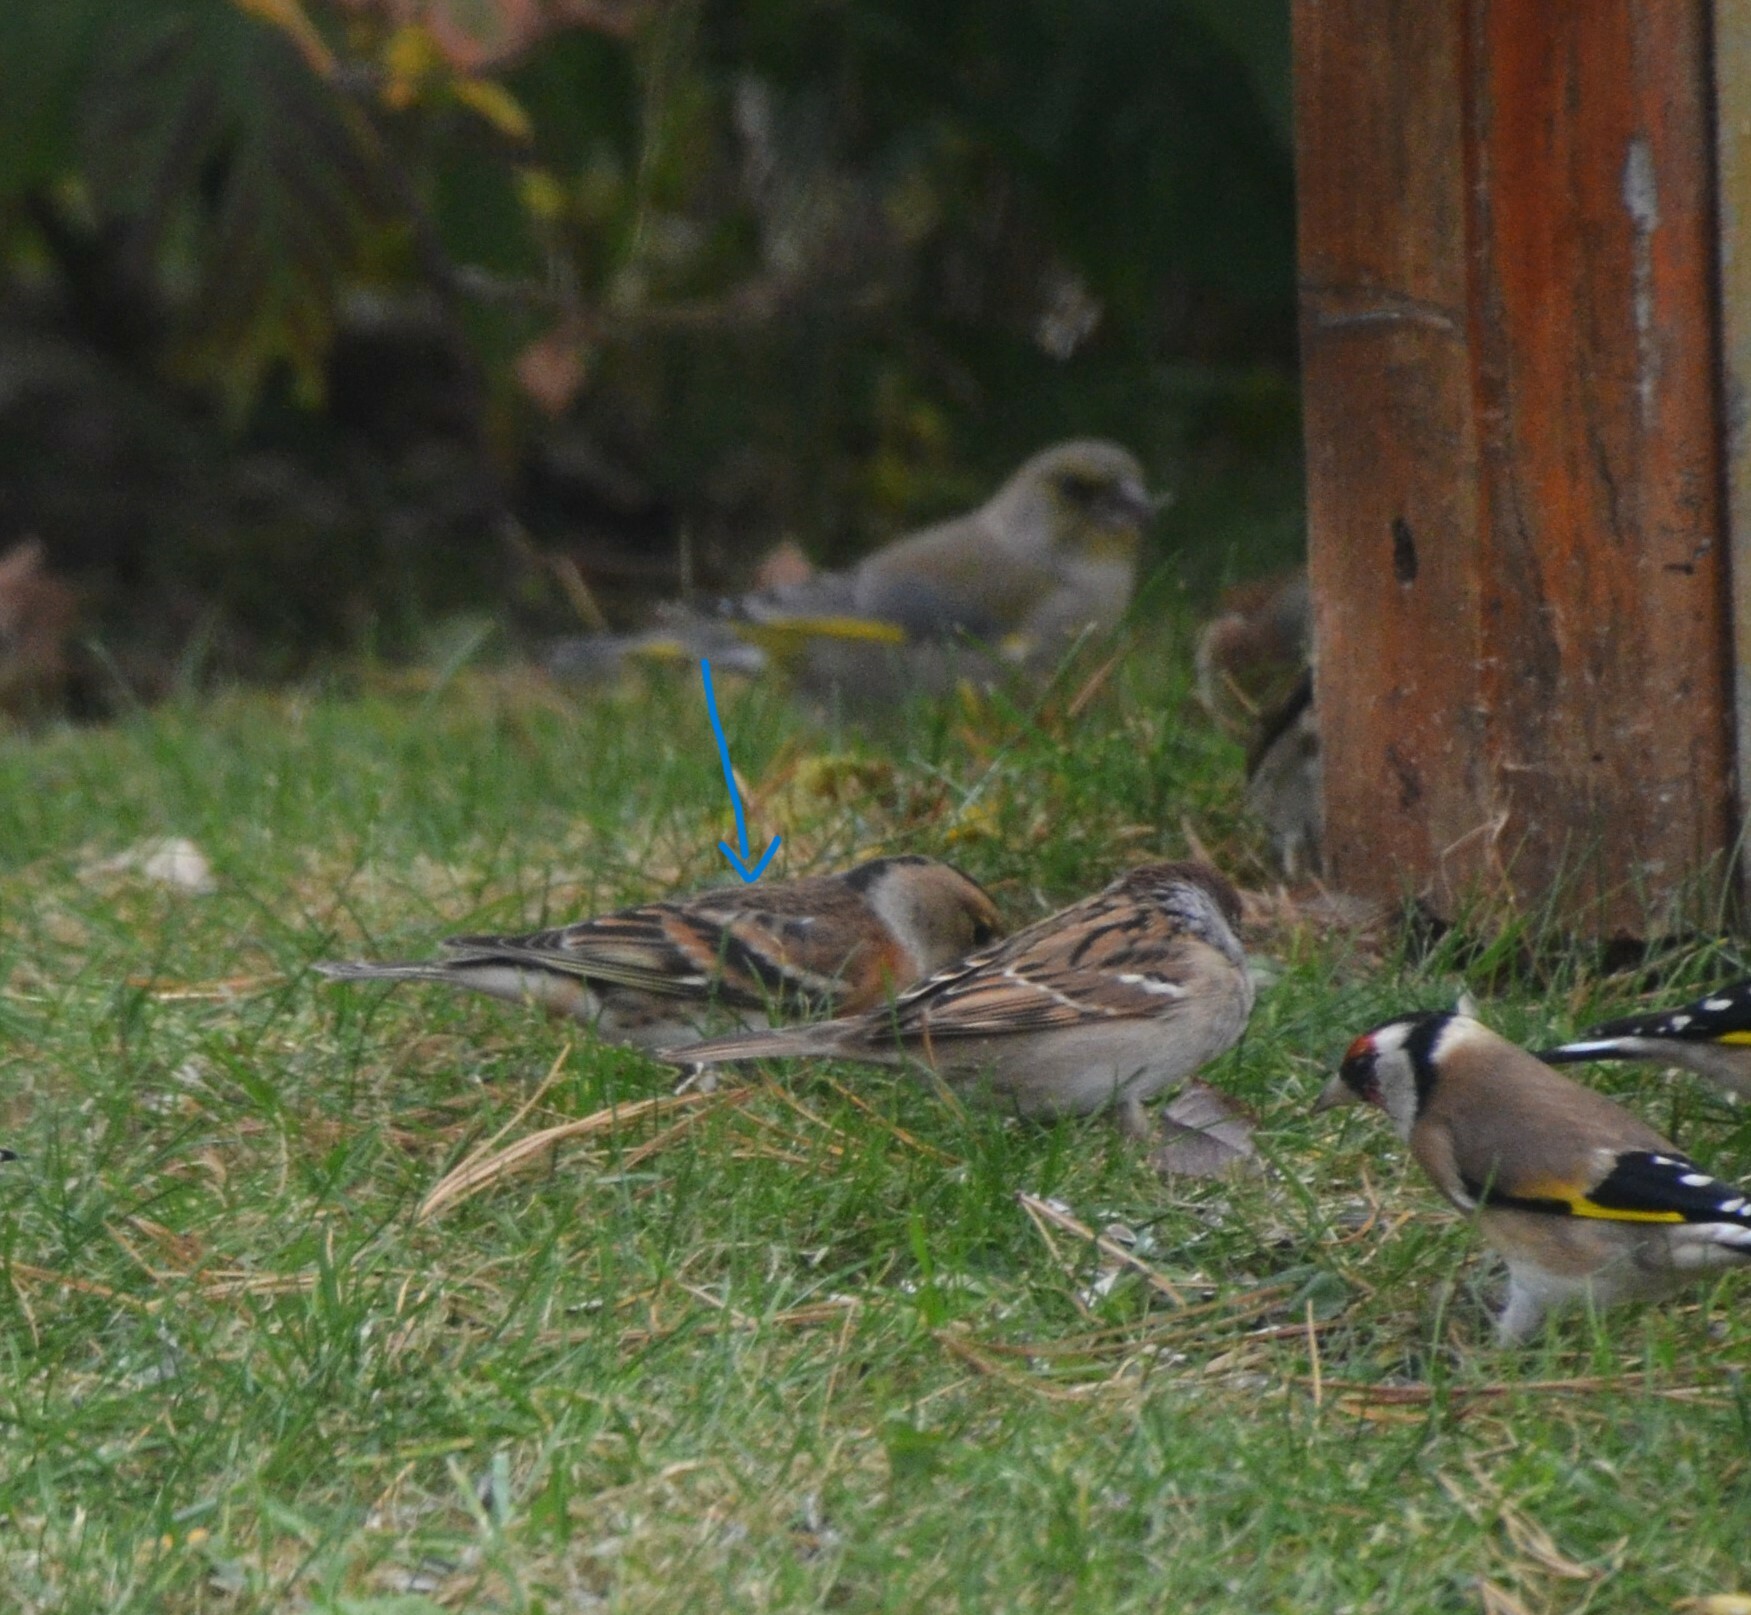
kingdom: Animalia
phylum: Chordata
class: Aves
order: Passeriformes
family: Fringillidae
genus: Fringilla
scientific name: Fringilla montifringilla
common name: Brambling
